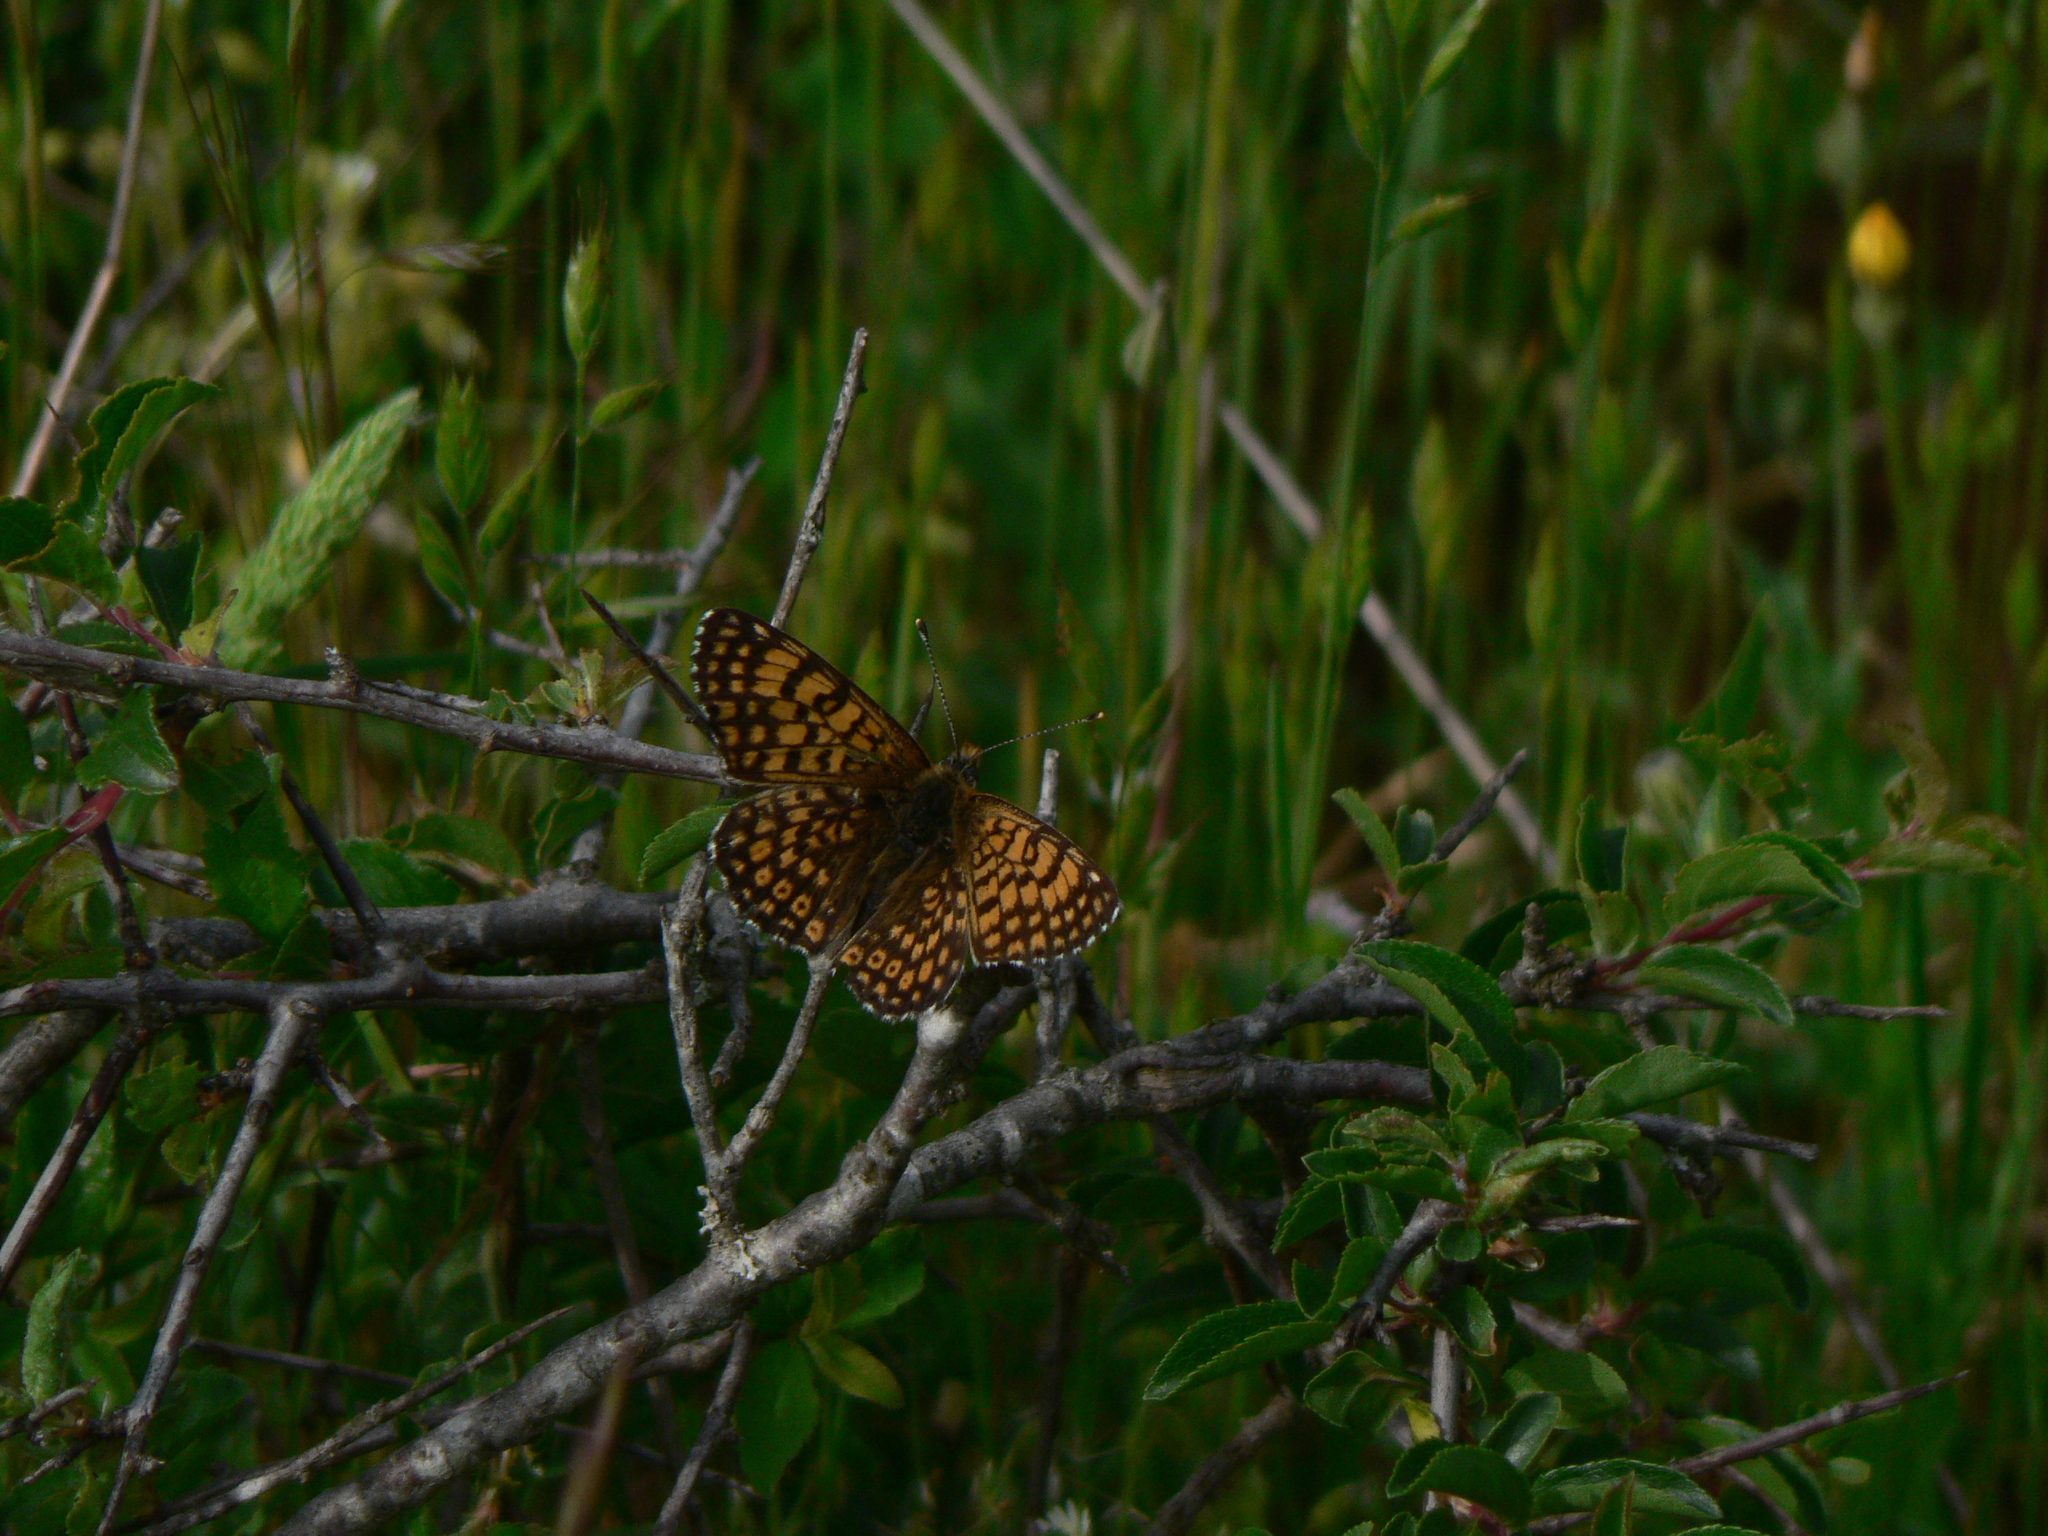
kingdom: Animalia
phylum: Arthropoda
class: Insecta
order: Lepidoptera
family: Nymphalidae
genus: Melitaea
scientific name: Melitaea cinxia
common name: Glanville fritillary
